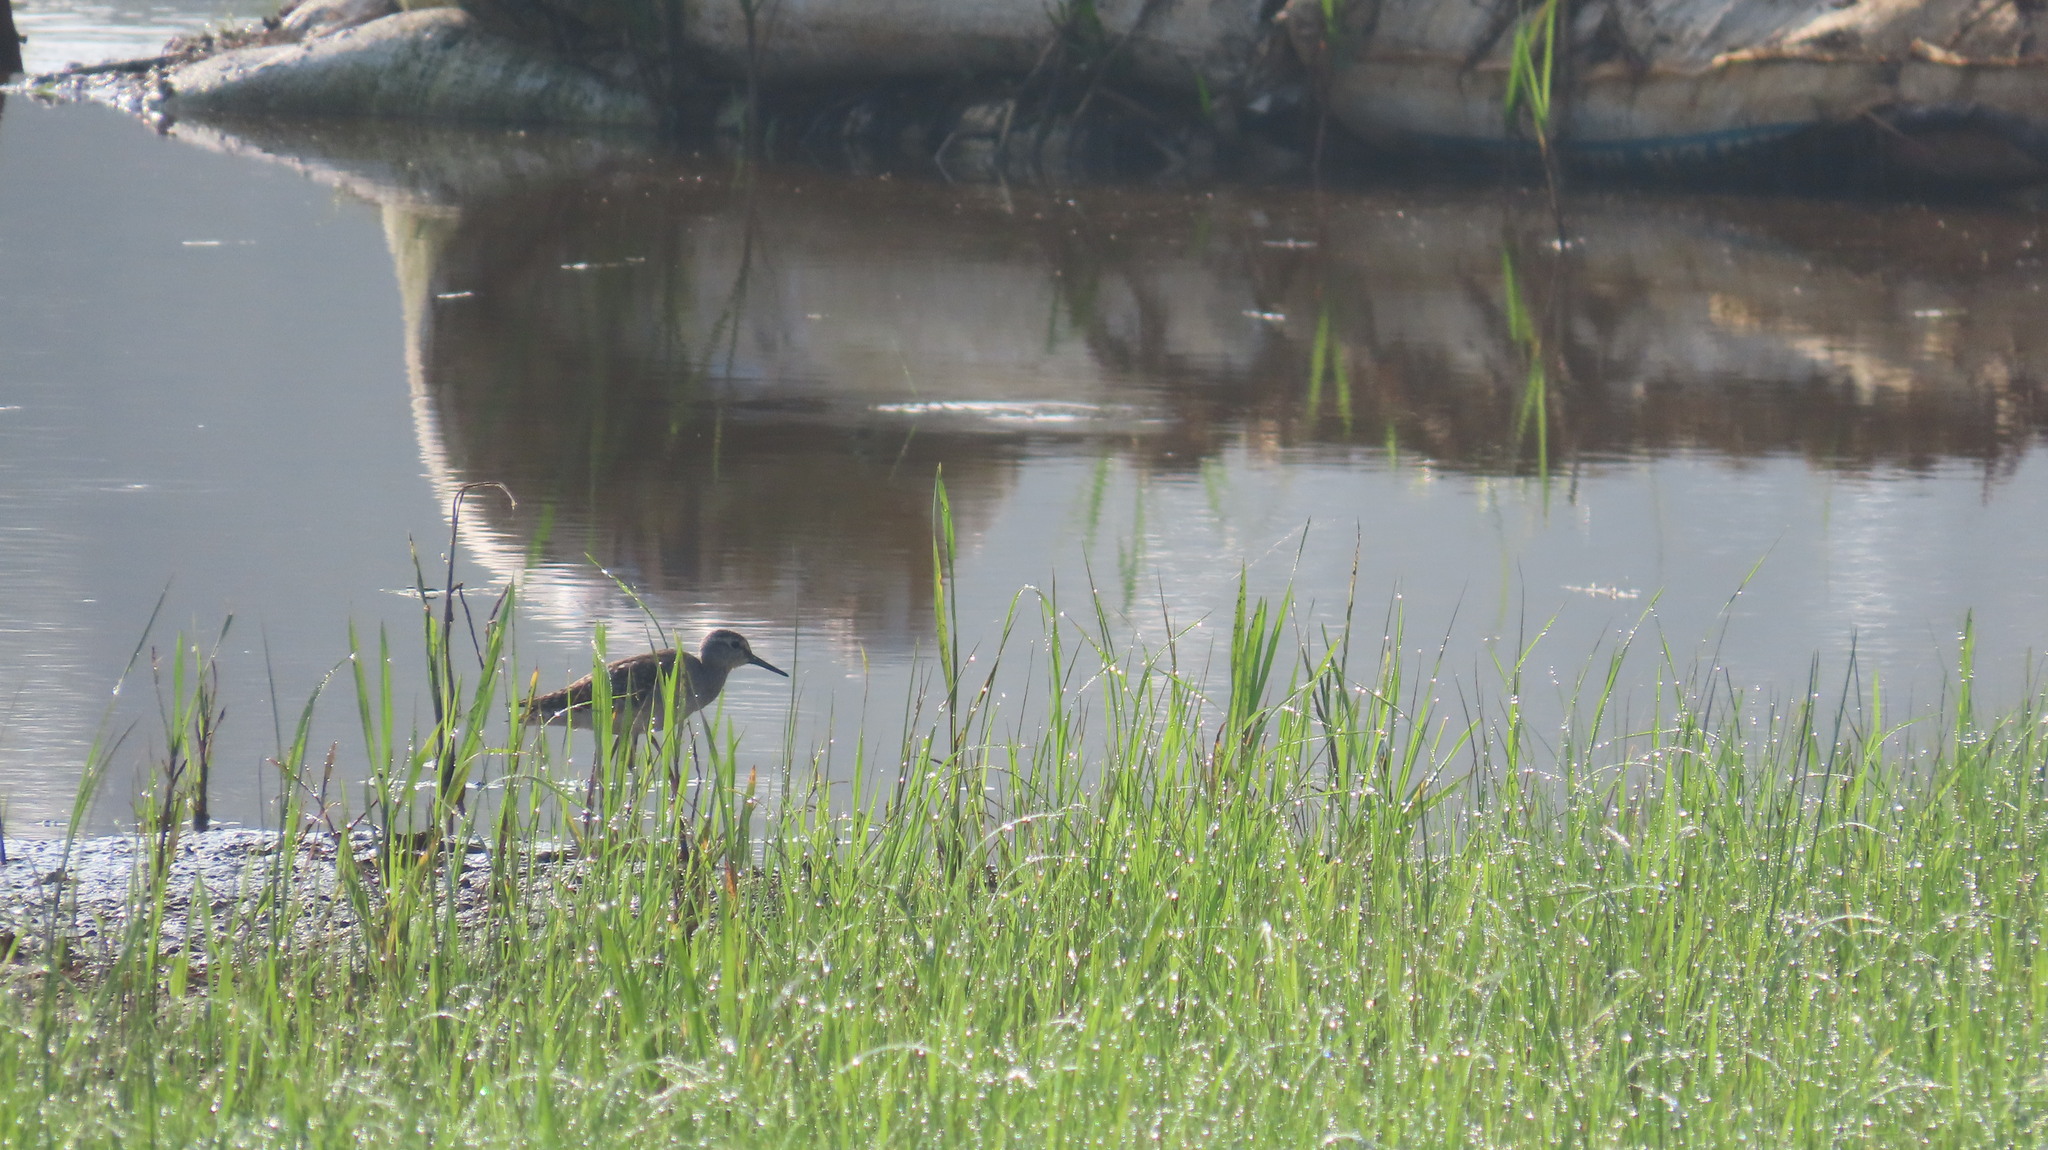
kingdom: Animalia
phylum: Chordata
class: Aves
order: Charadriiformes
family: Scolopacidae
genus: Tringa
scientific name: Tringa glareola
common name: Wood sandpiper
